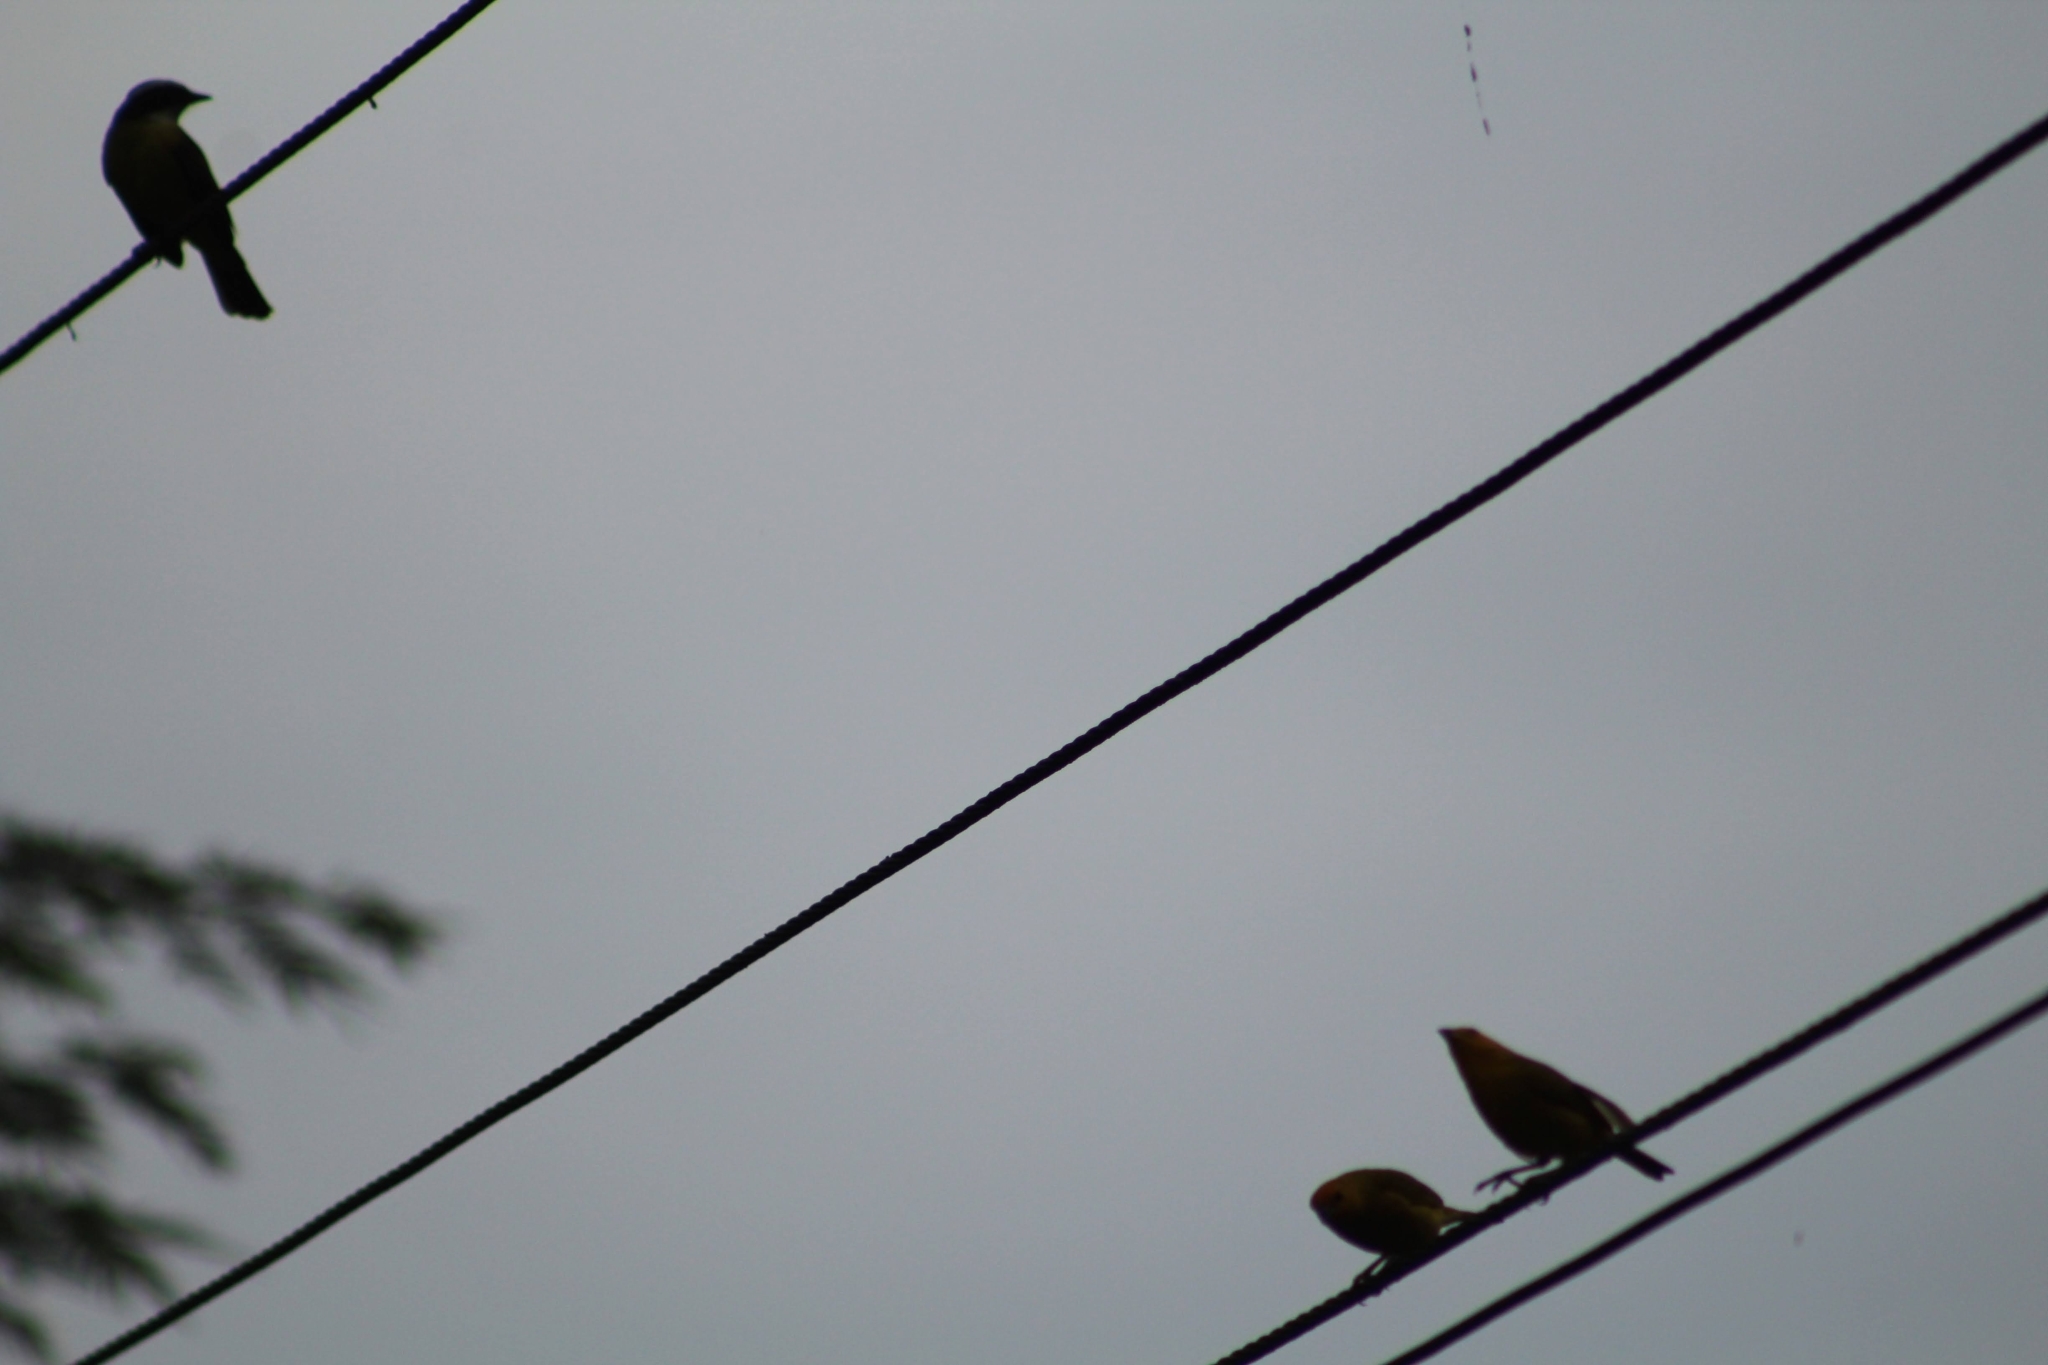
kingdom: Animalia
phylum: Chordata
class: Aves
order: Passeriformes
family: Thraupidae
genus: Sicalis
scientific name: Sicalis flaveola
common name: Saffron finch
